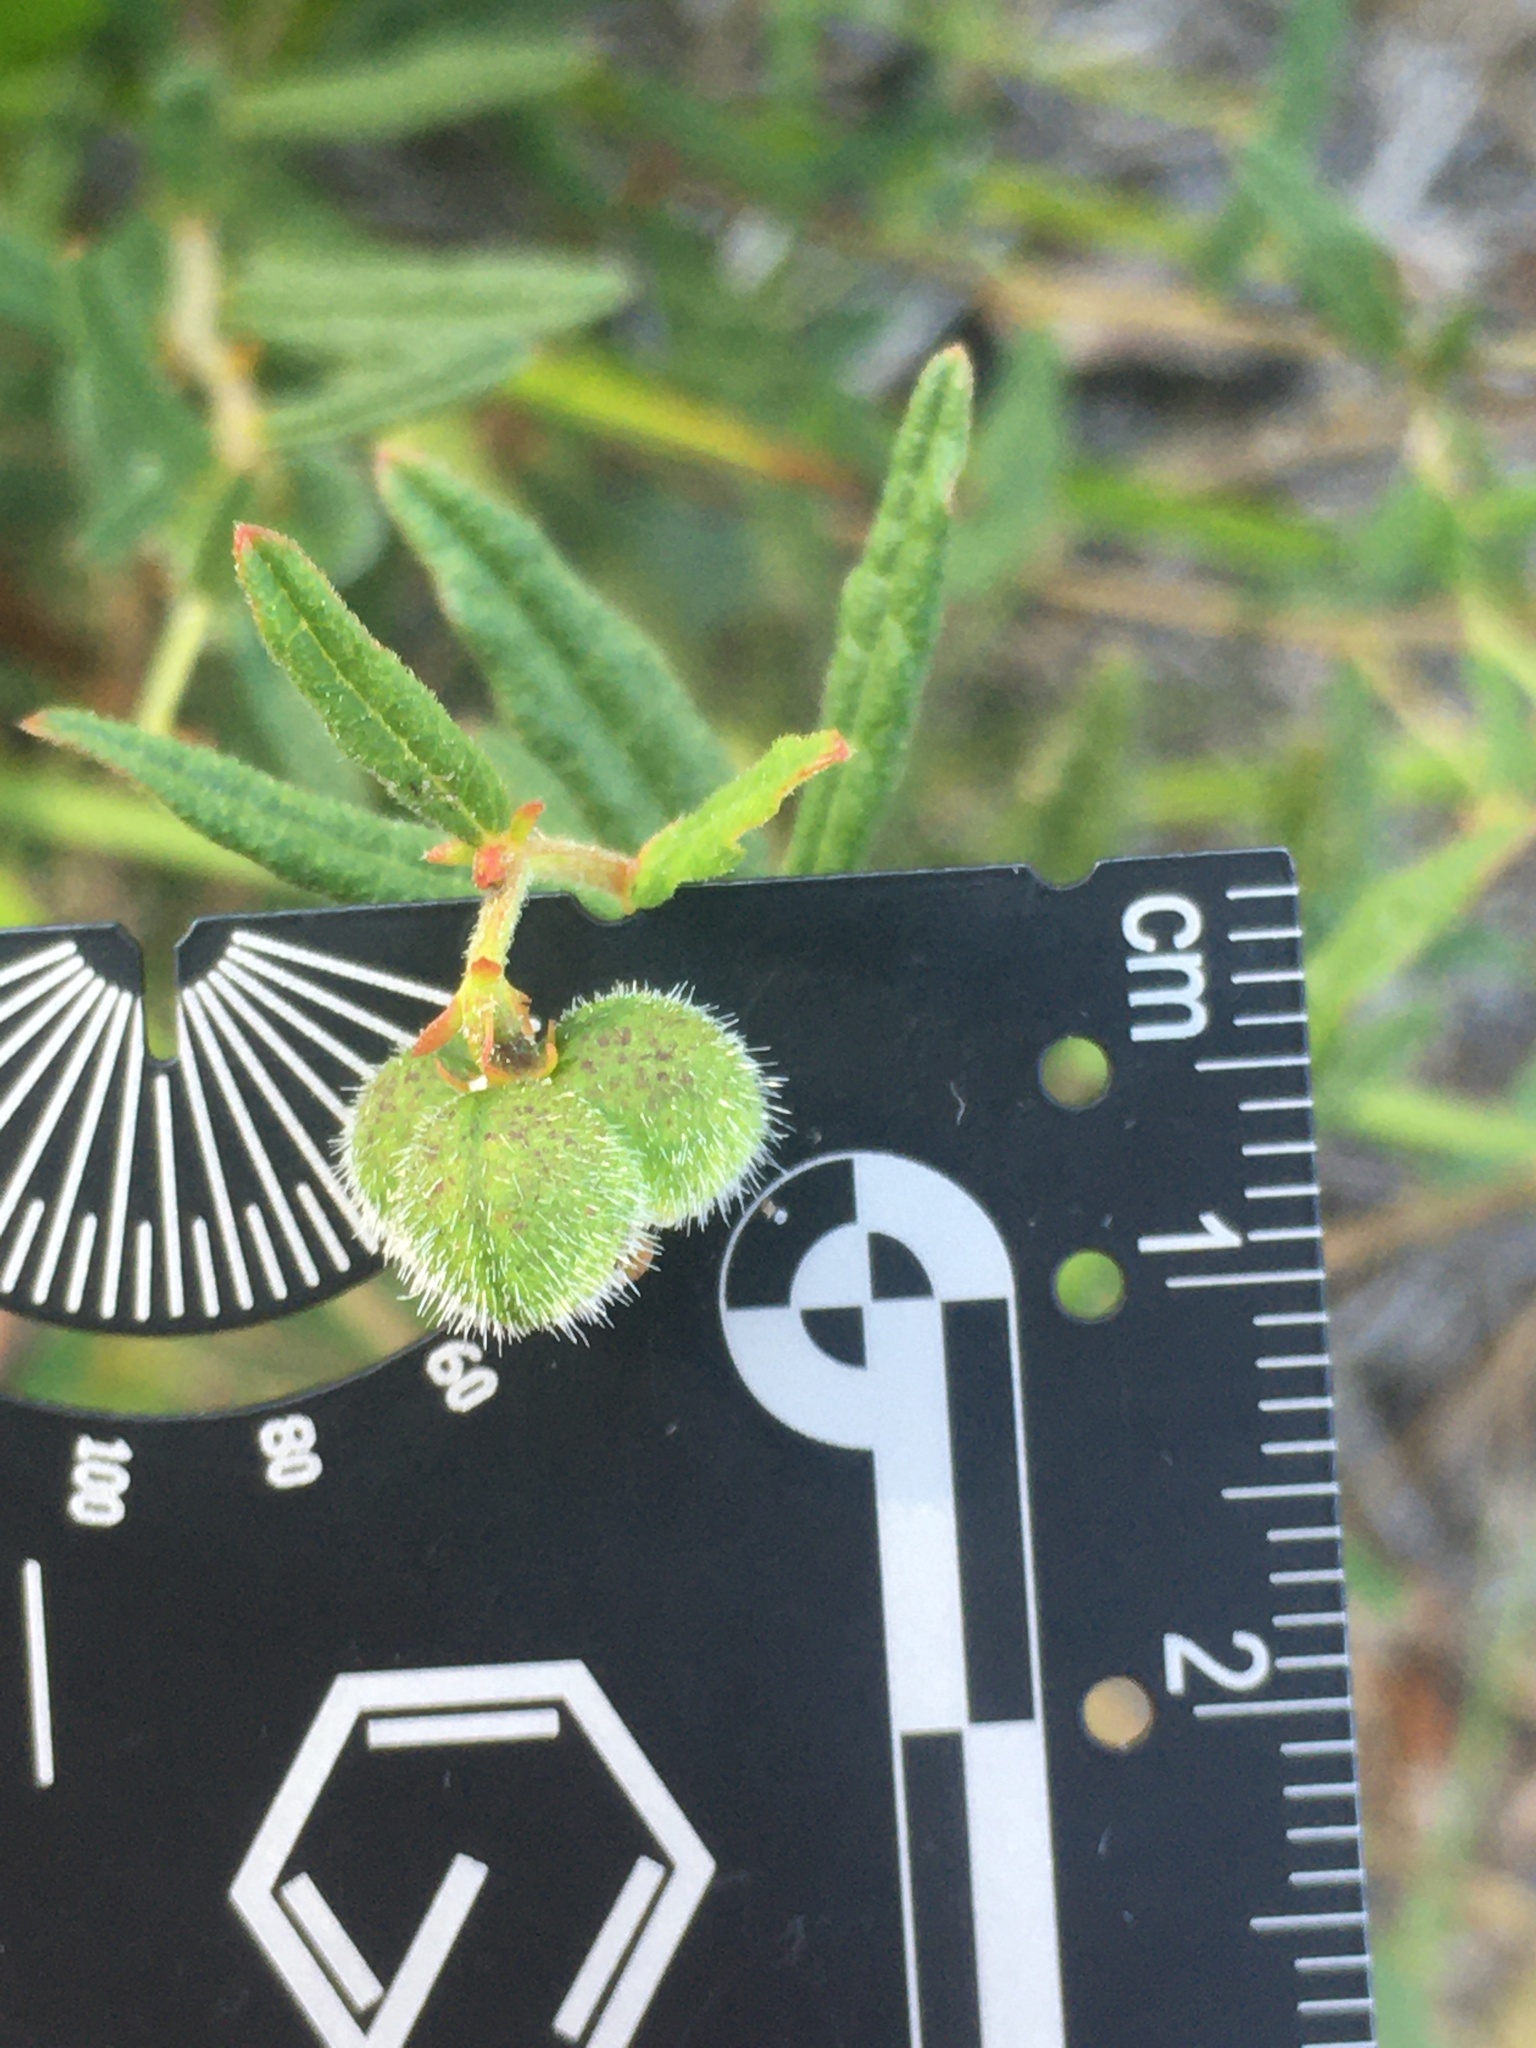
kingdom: Plantae
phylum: Tracheophyta
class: Magnoliopsida
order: Malpighiales
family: Euphorbiaceae
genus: Tragia
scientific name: Tragia urens
